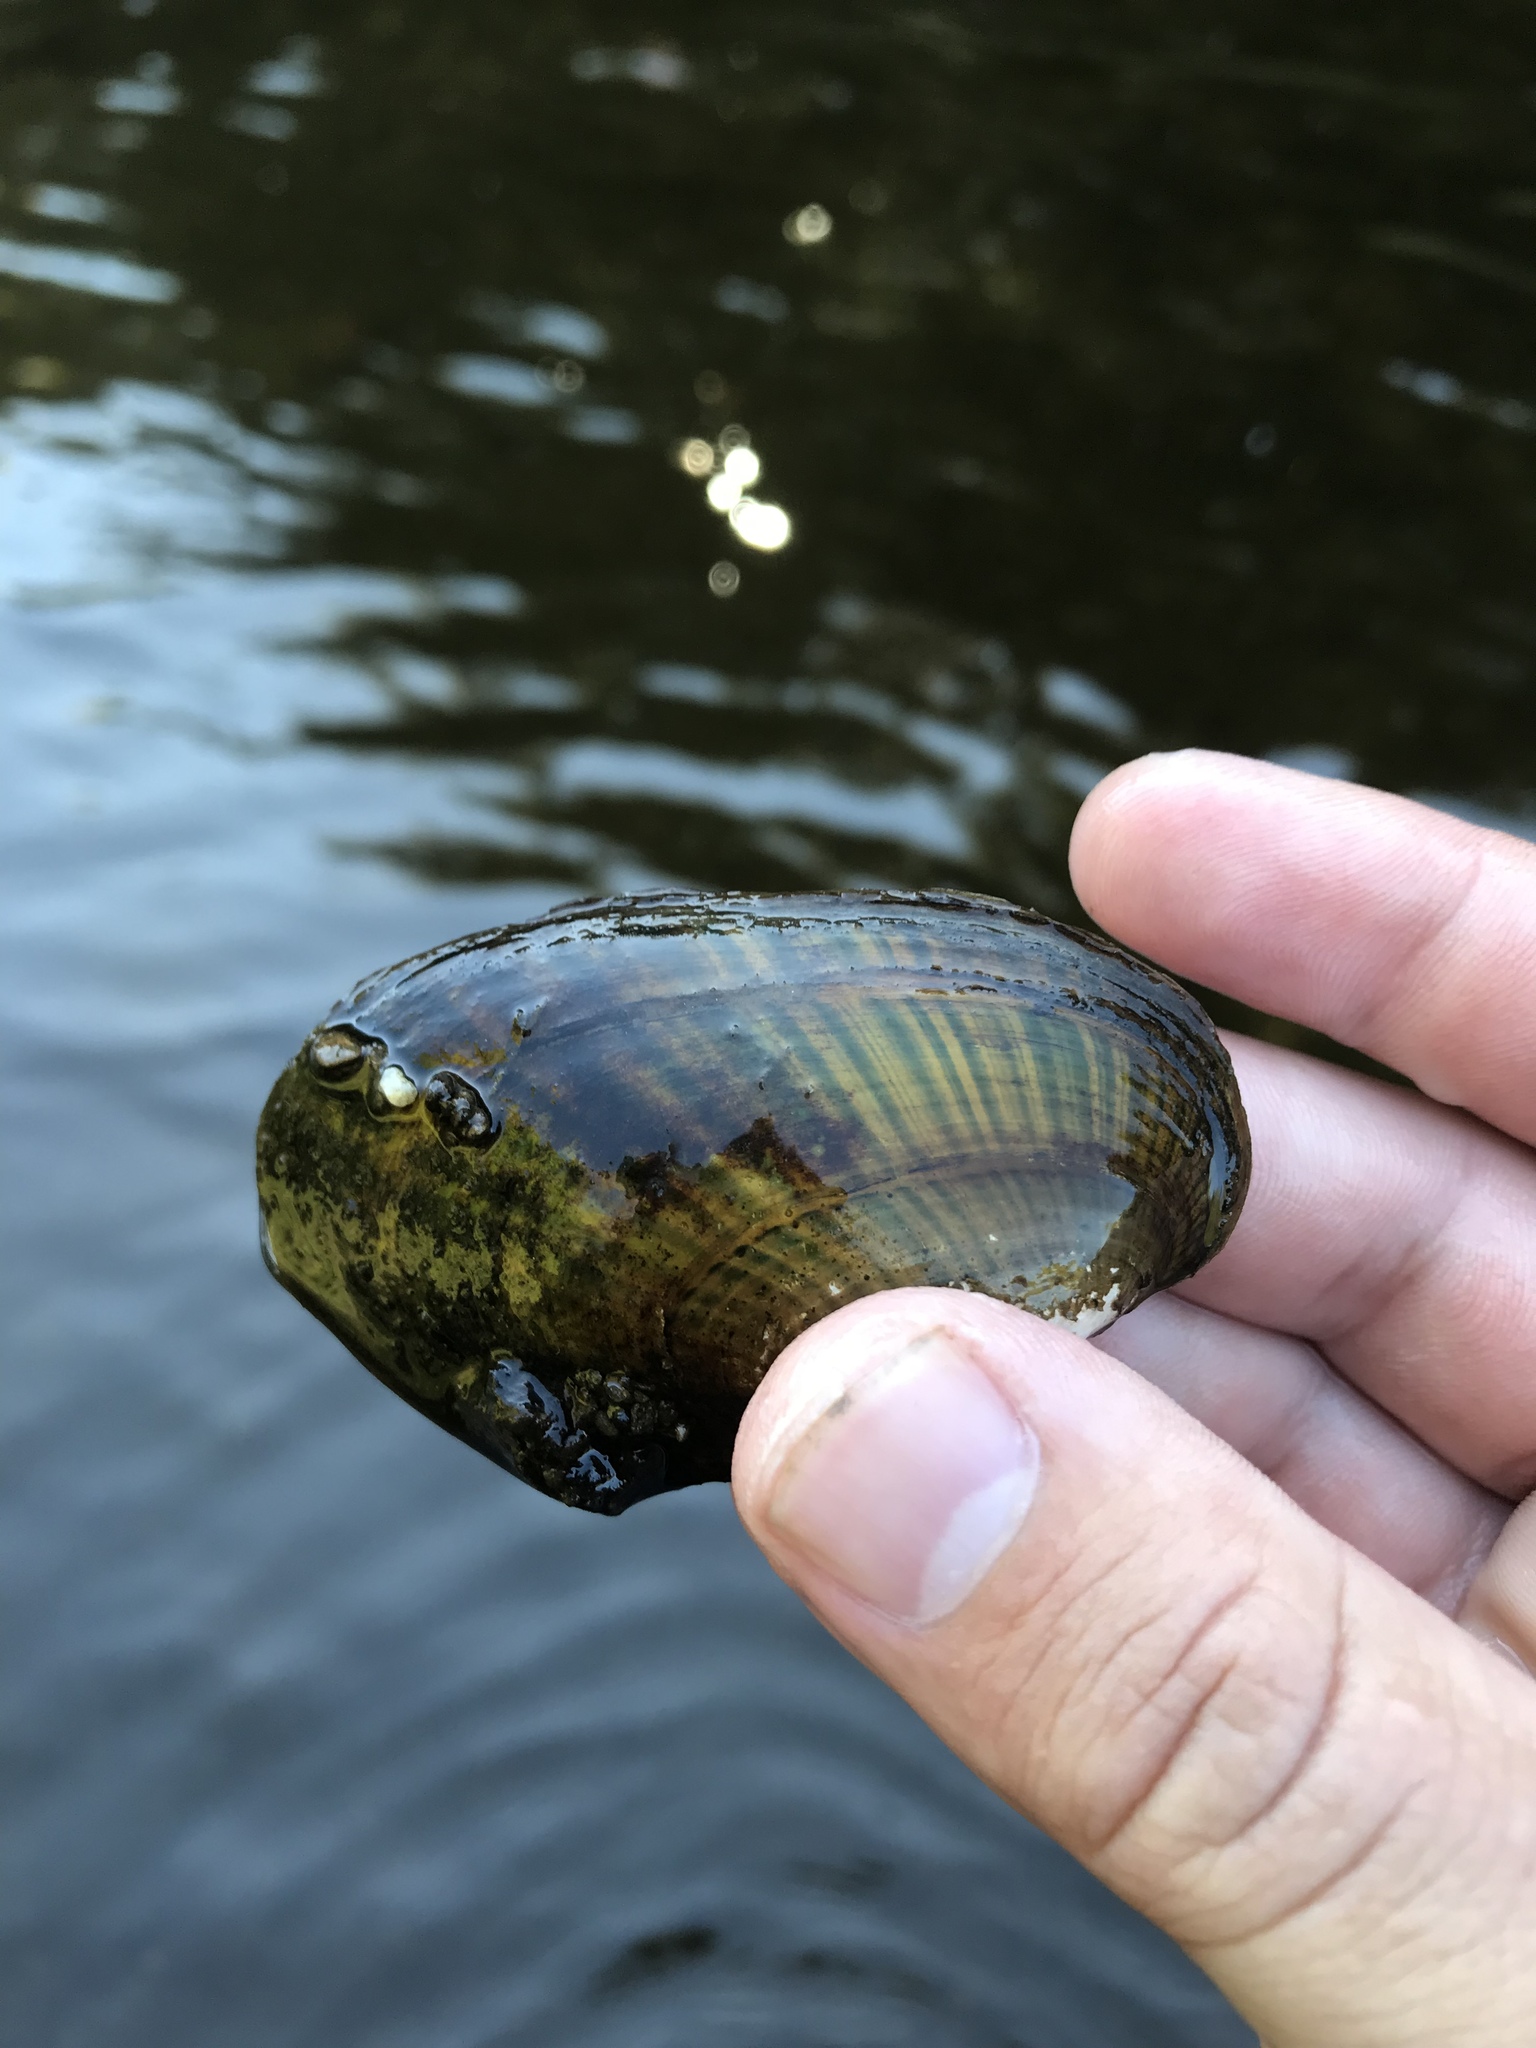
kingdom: Animalia
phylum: Mollusca
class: Bivalvia
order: Unionida
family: Unionidae
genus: Lampsilis
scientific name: Lampsilis radiata
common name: Eastern lampmussel
